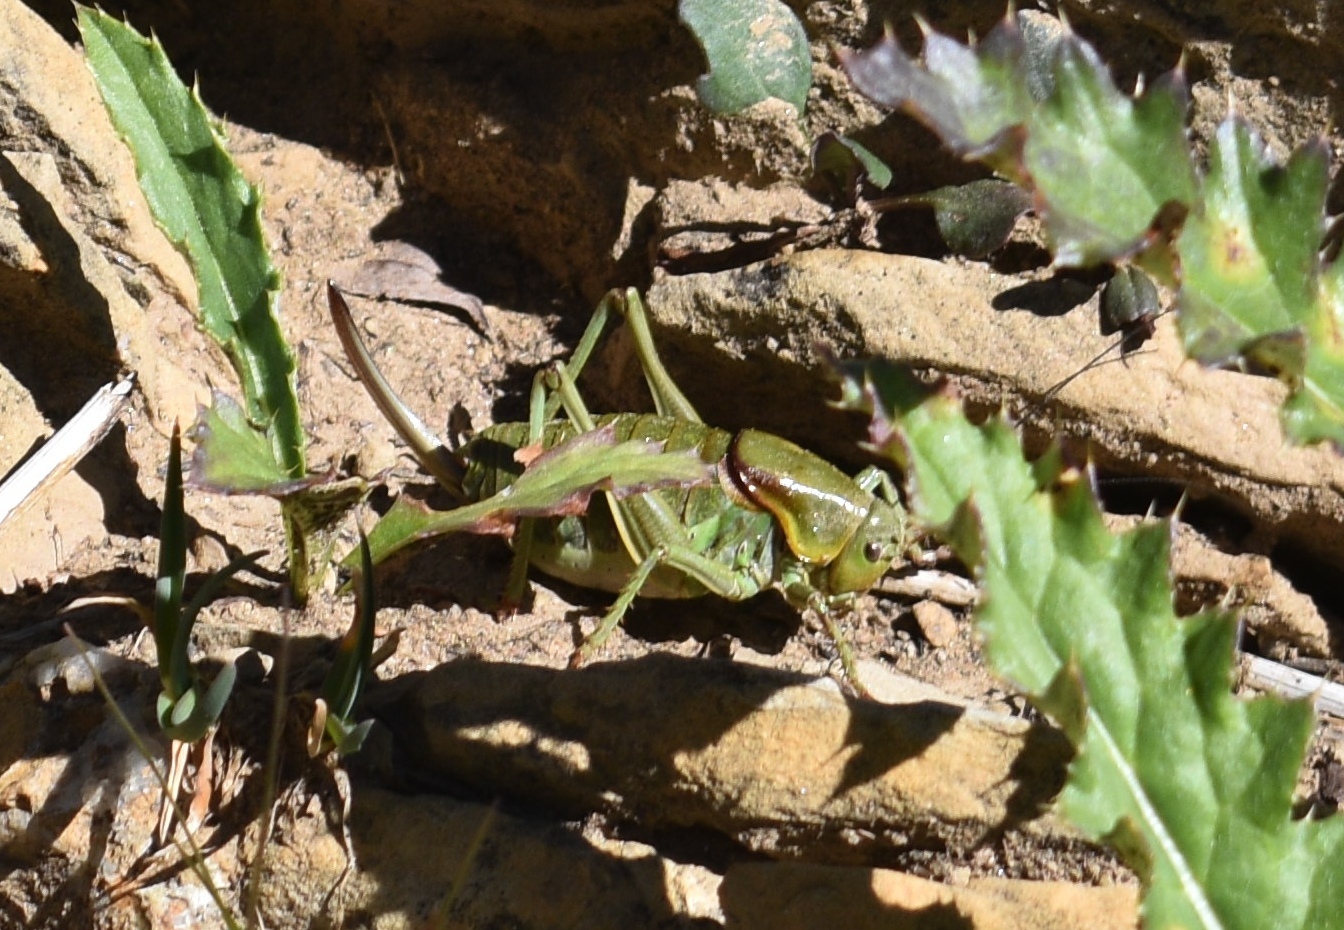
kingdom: Animalia
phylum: Arthropoda
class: Insecta
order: Orthoptera
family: Tettigoniidae
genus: Anabrus
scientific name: Anabrus simplex
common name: Mormon cricket
